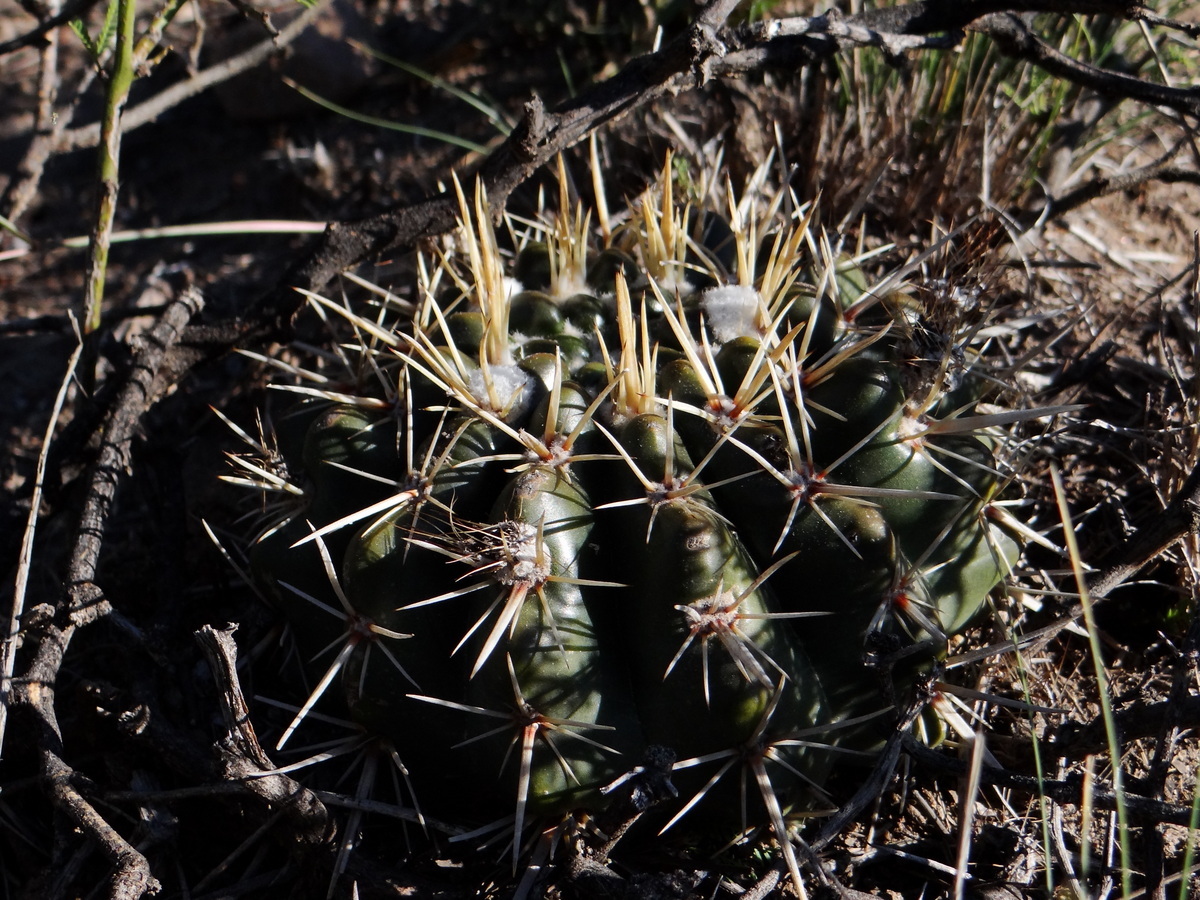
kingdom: Plantae
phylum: Tracheophyta
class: Magnoliopsida
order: Caryophyllales
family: Cactaceae
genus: Parodia
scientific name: Parodia mammulosa
